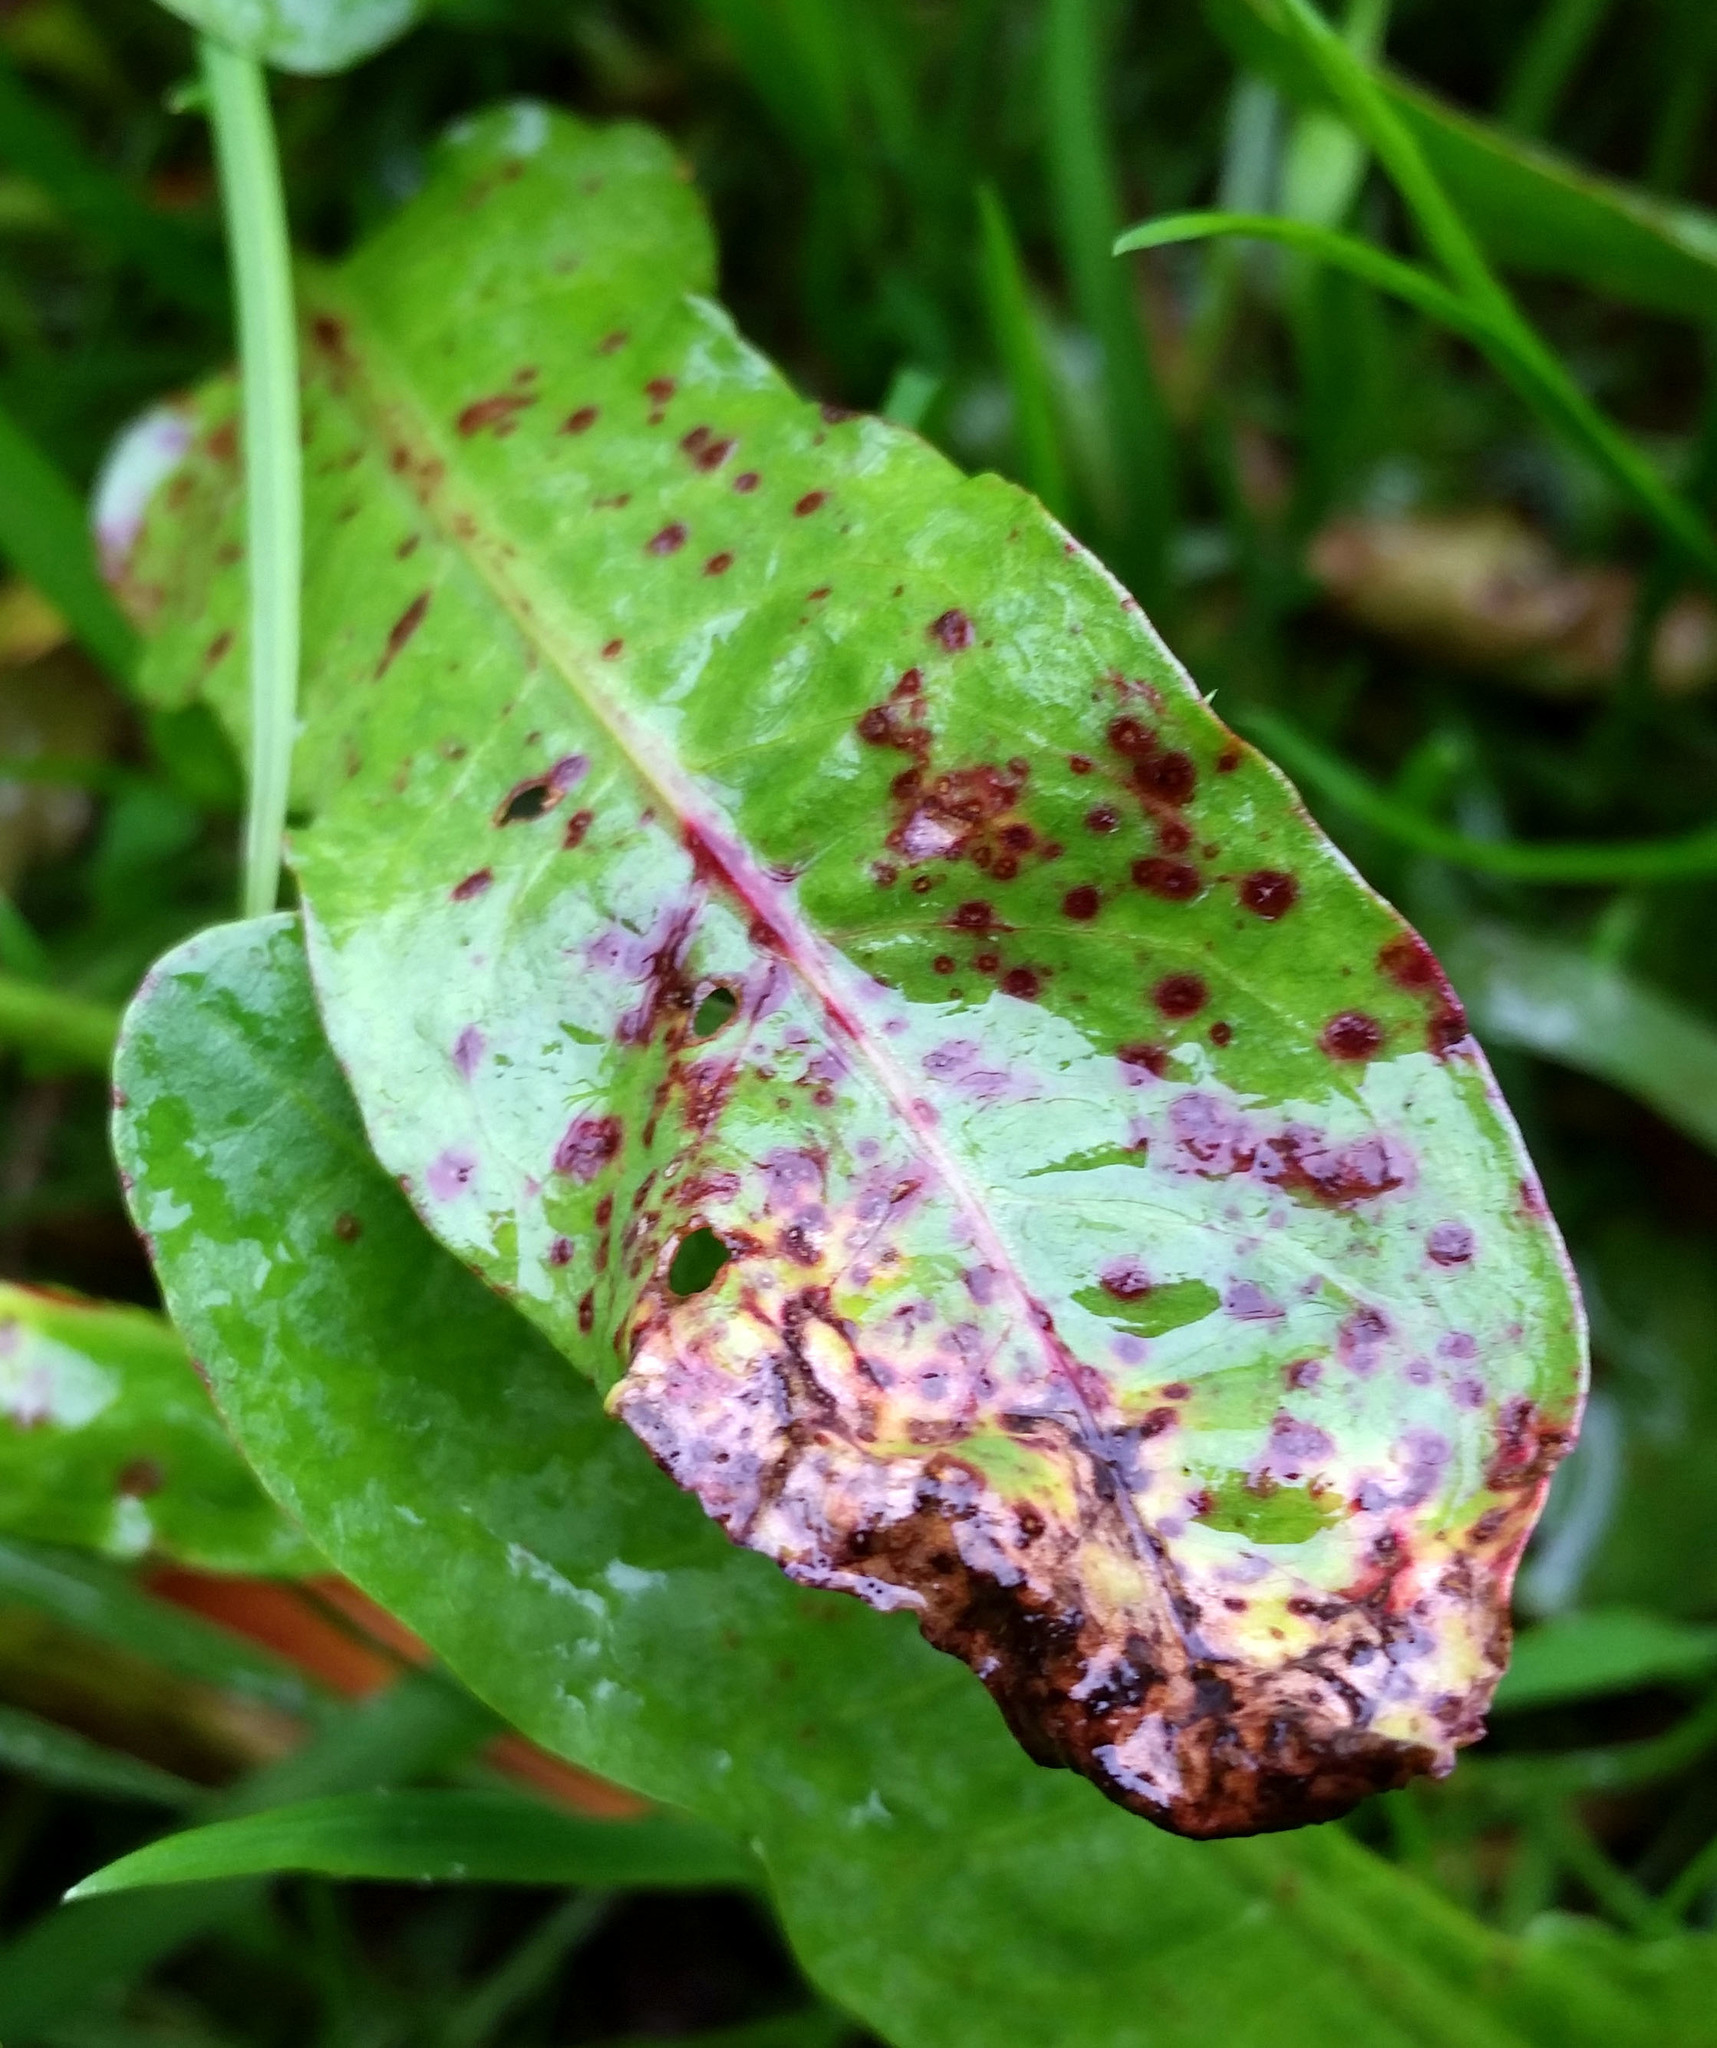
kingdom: Fungi
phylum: Ascomycota
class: Dothideomycetes
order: Mycosphaerellales
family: Mycosphaerellaceae
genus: Ramularia
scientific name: Ramularia rubella
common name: Red dock spot
